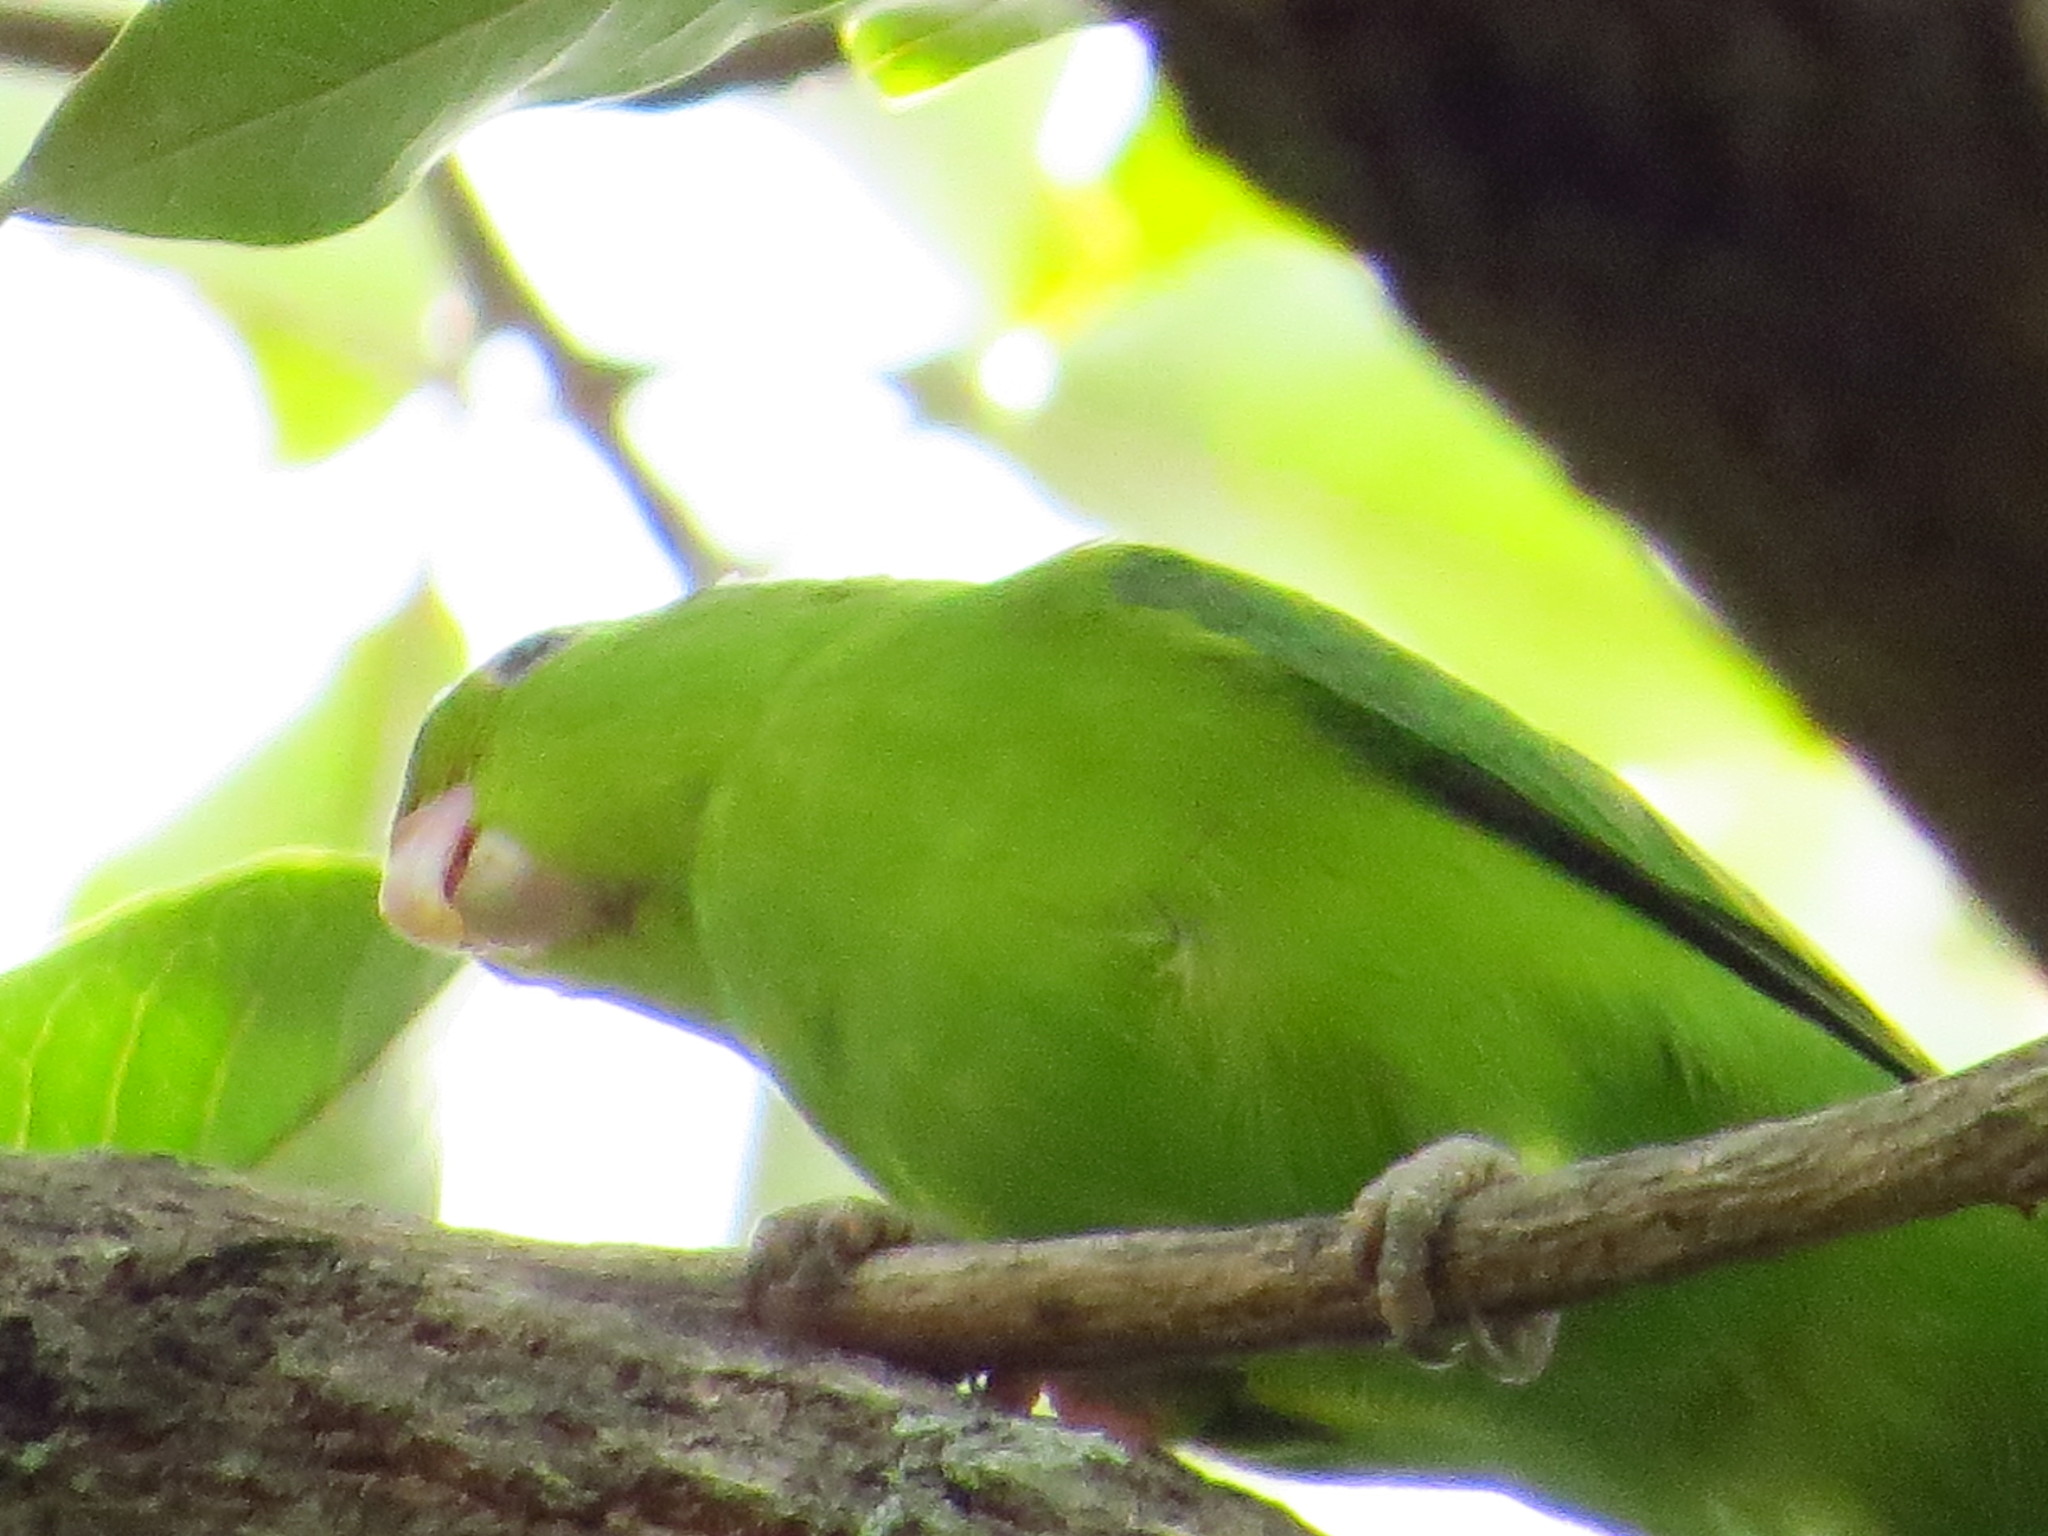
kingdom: Animalia
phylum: Chordata
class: Aves
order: Psittaciformes
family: Psittacidae
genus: Forpus
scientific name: Forpus xanthopterygius
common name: Blue-winged parrotlet
